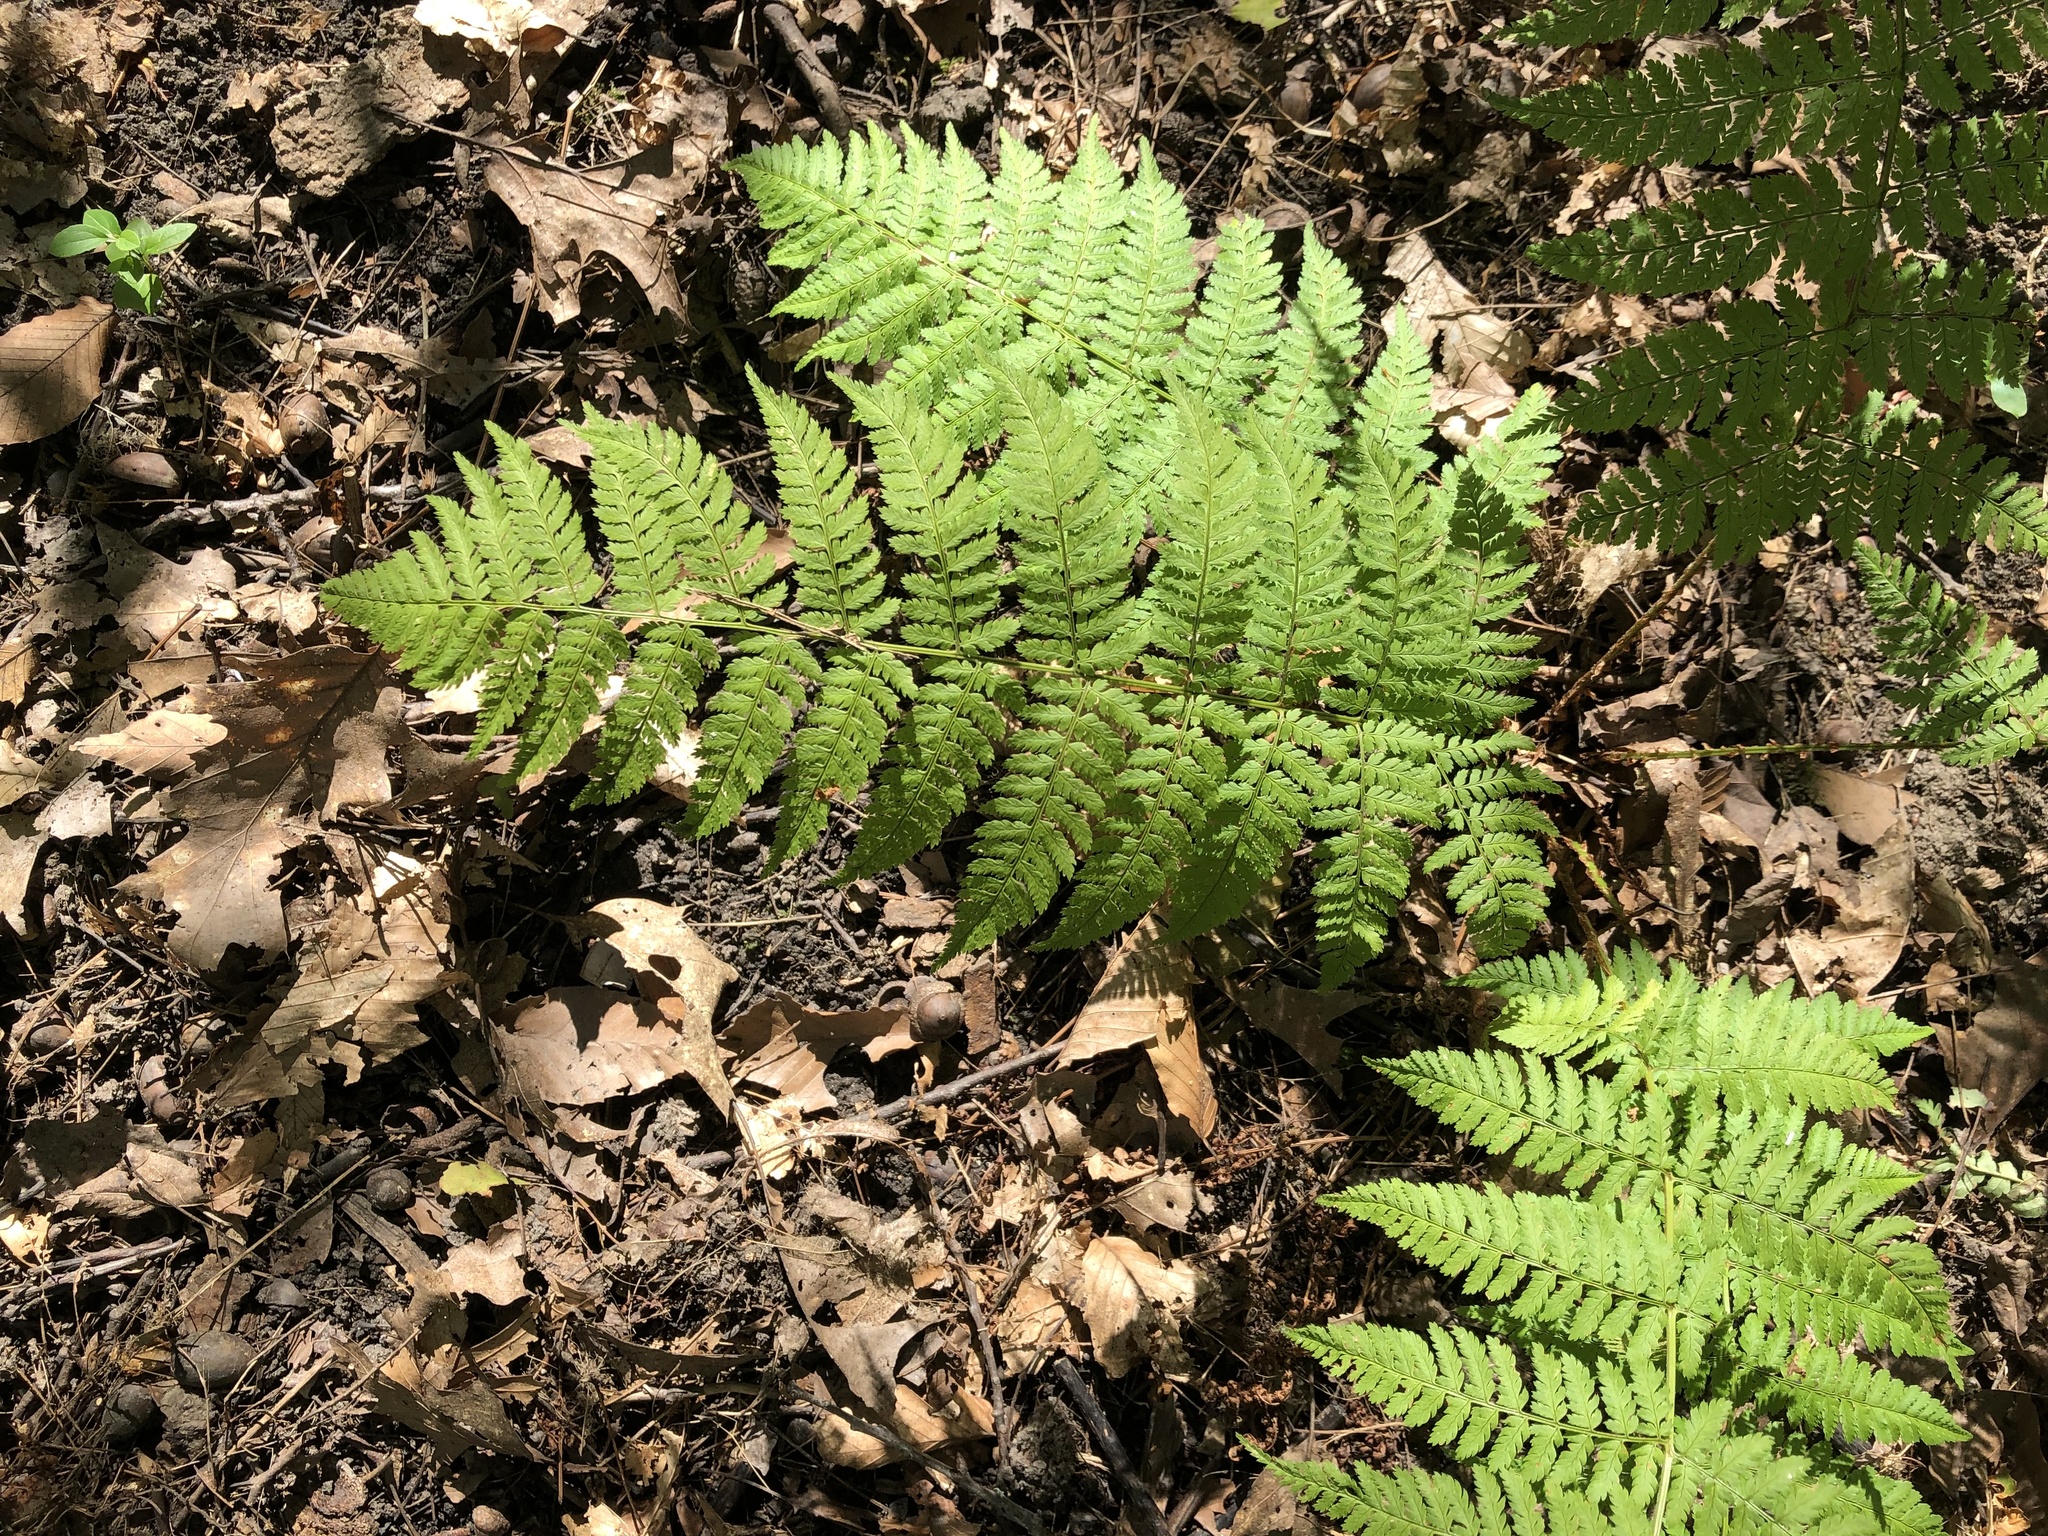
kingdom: Plantae
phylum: Tracheophyta
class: Polypodiopsida
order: Polypodiales
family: Dryopteridaceae
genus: Dryopteris
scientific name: Dryopteris intermedia
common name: Evergreen wood fern
